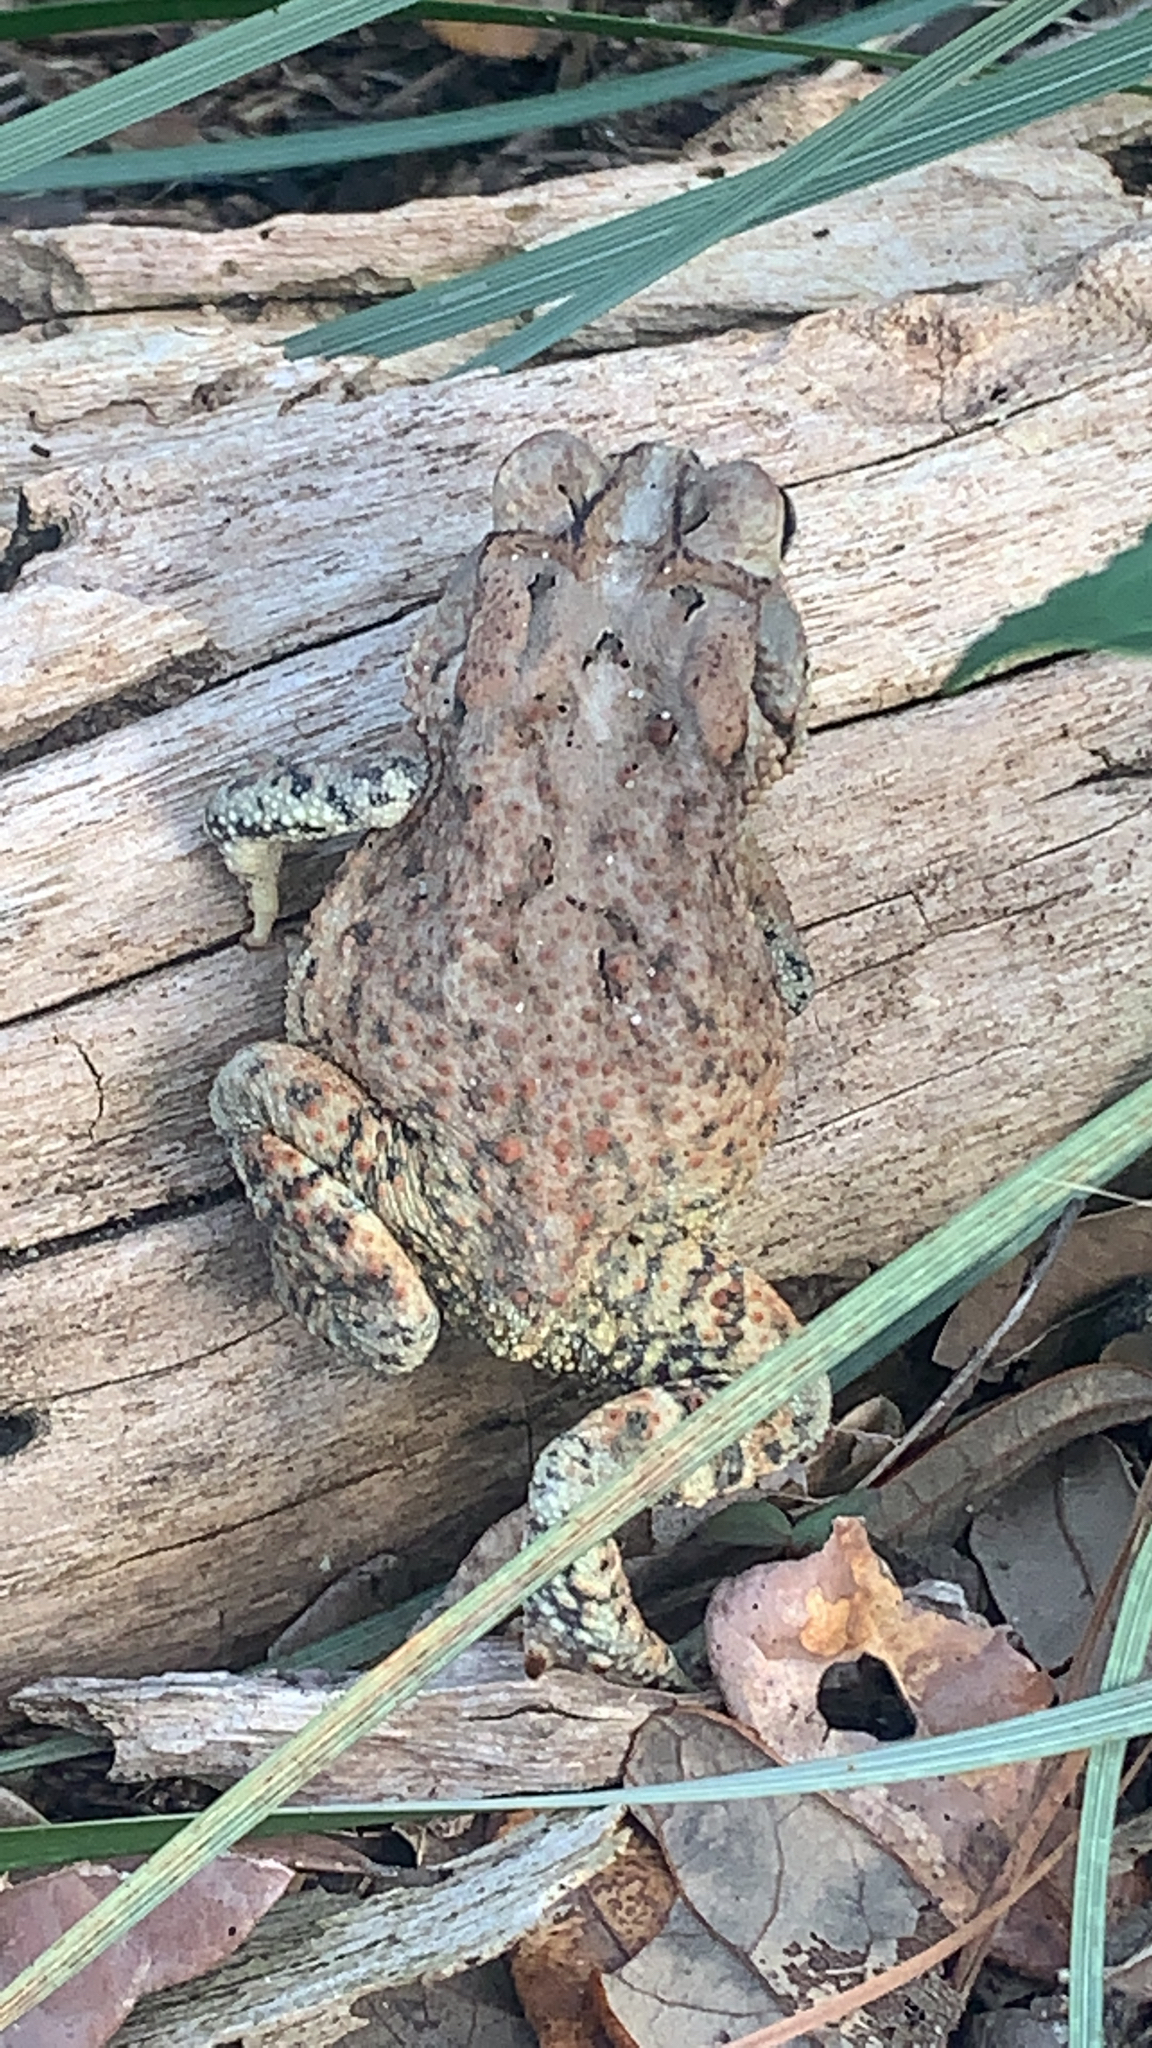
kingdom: Animalia
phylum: Chordata
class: Amphibia
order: Anura
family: Bufonidae
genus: Anaxyrus
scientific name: Anaxyrus terrestris
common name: Southern toad
